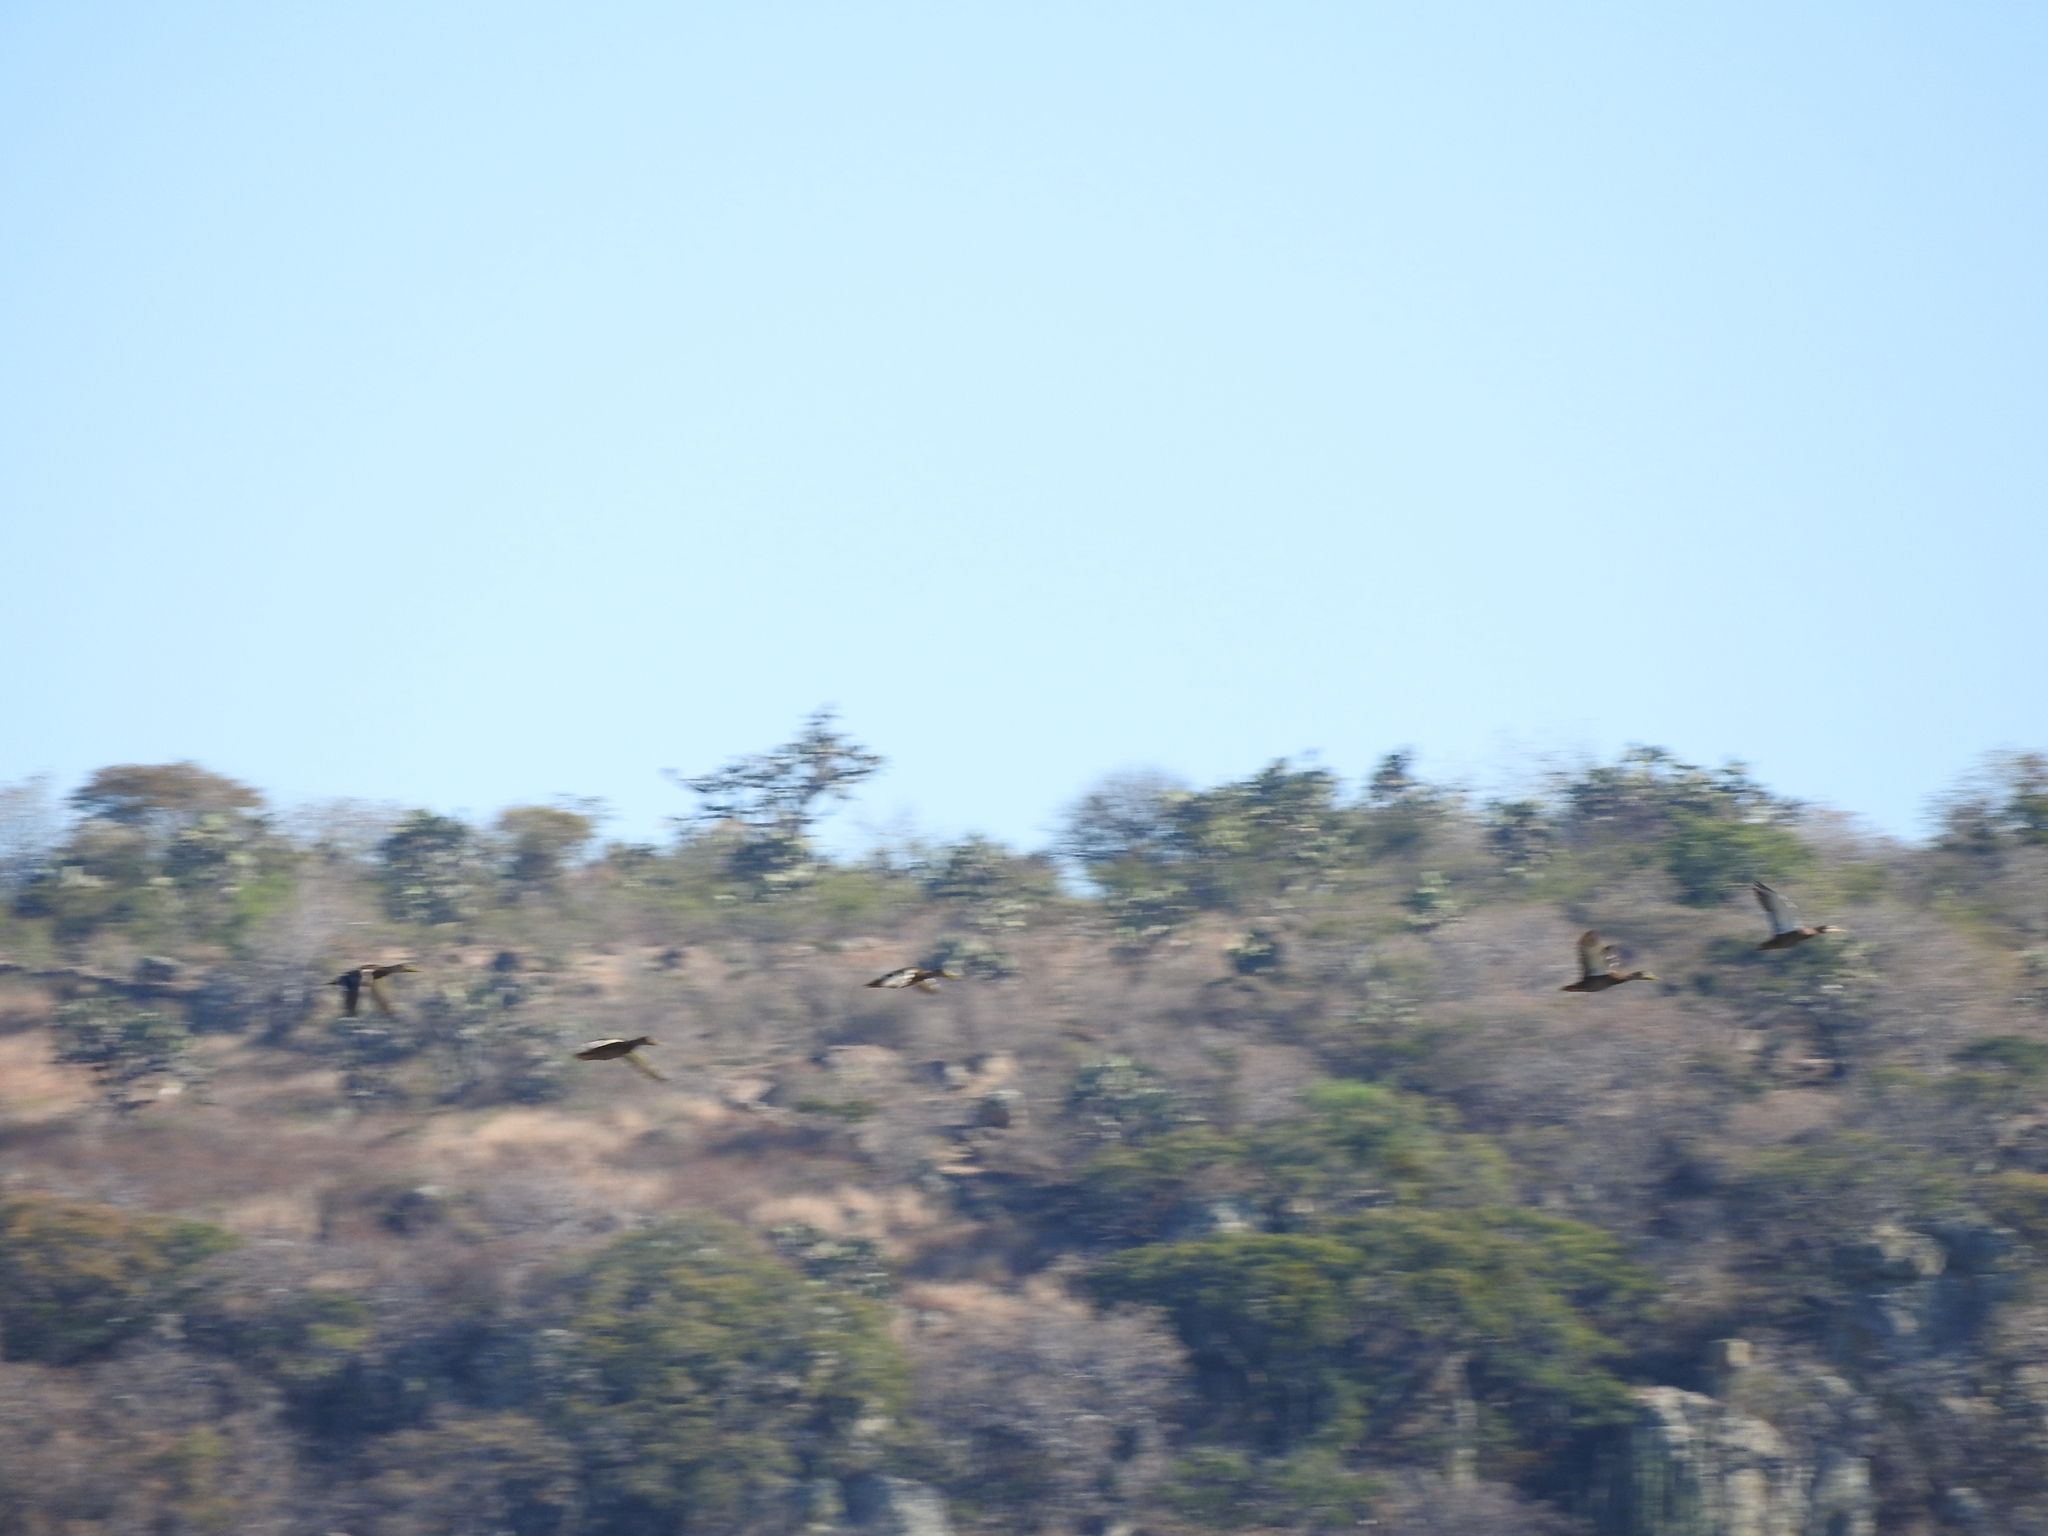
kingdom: Animalia
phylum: Chordata
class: Aves
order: Anseriformes
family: Anatidae
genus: Anas
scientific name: Anas diazi
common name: Mexican duck
